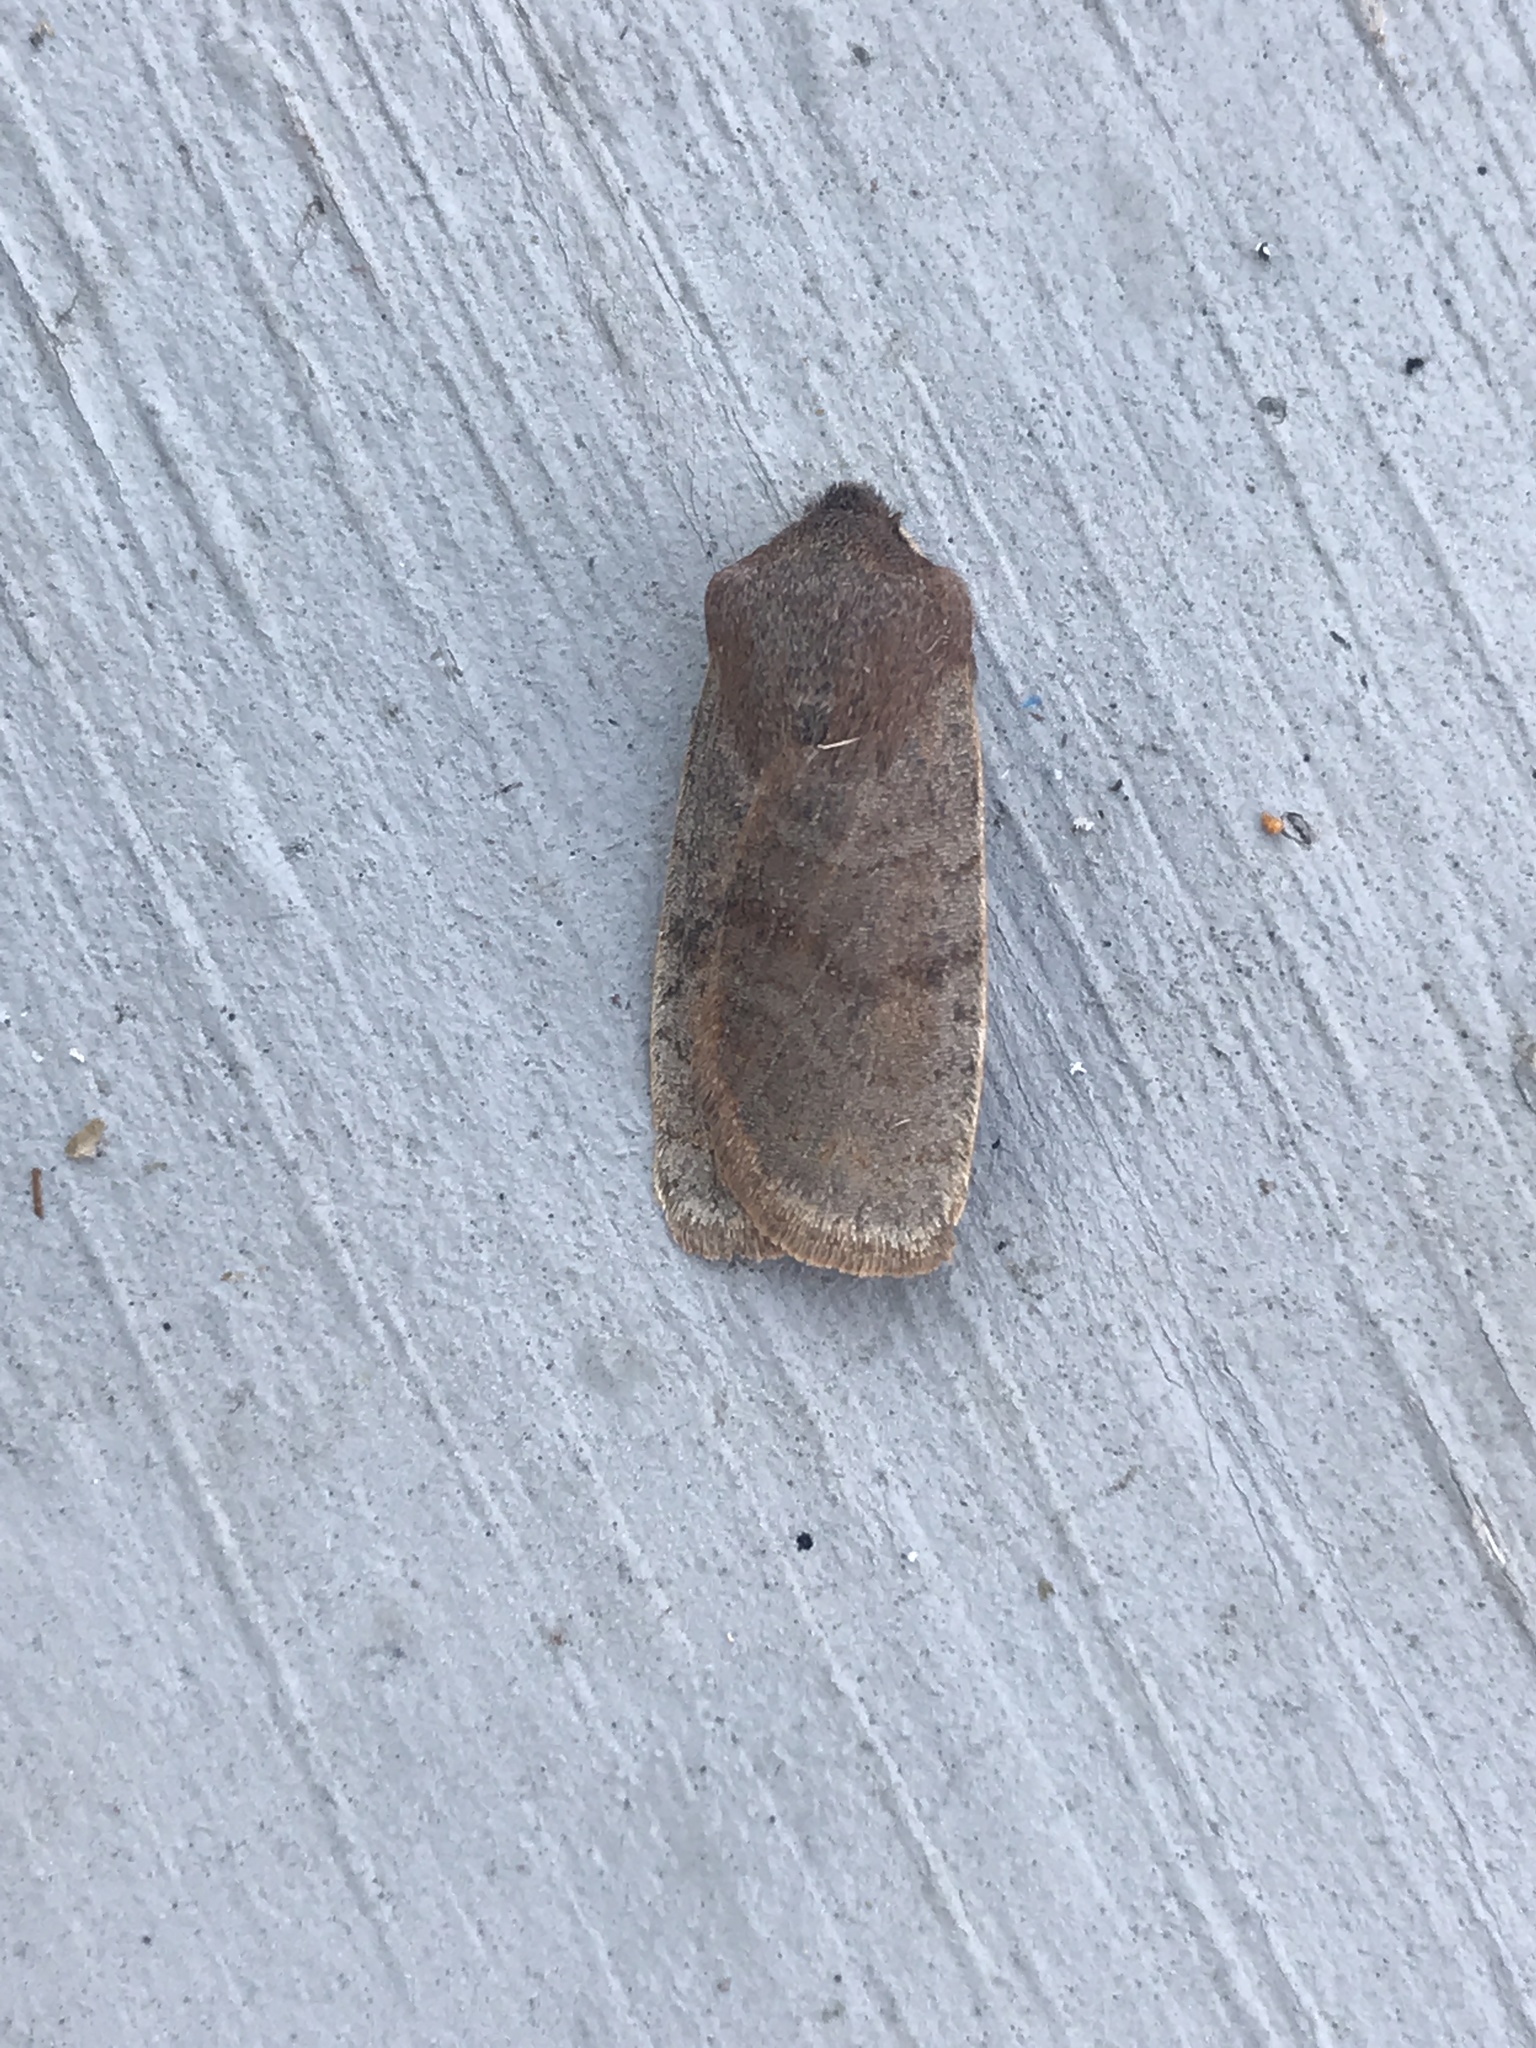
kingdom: Animalia
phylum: Arthropoda
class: Insecta
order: Lepidoptera
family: Noctuidae
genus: Homoglaea
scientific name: Homoglaea hircina
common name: Goat sallow
